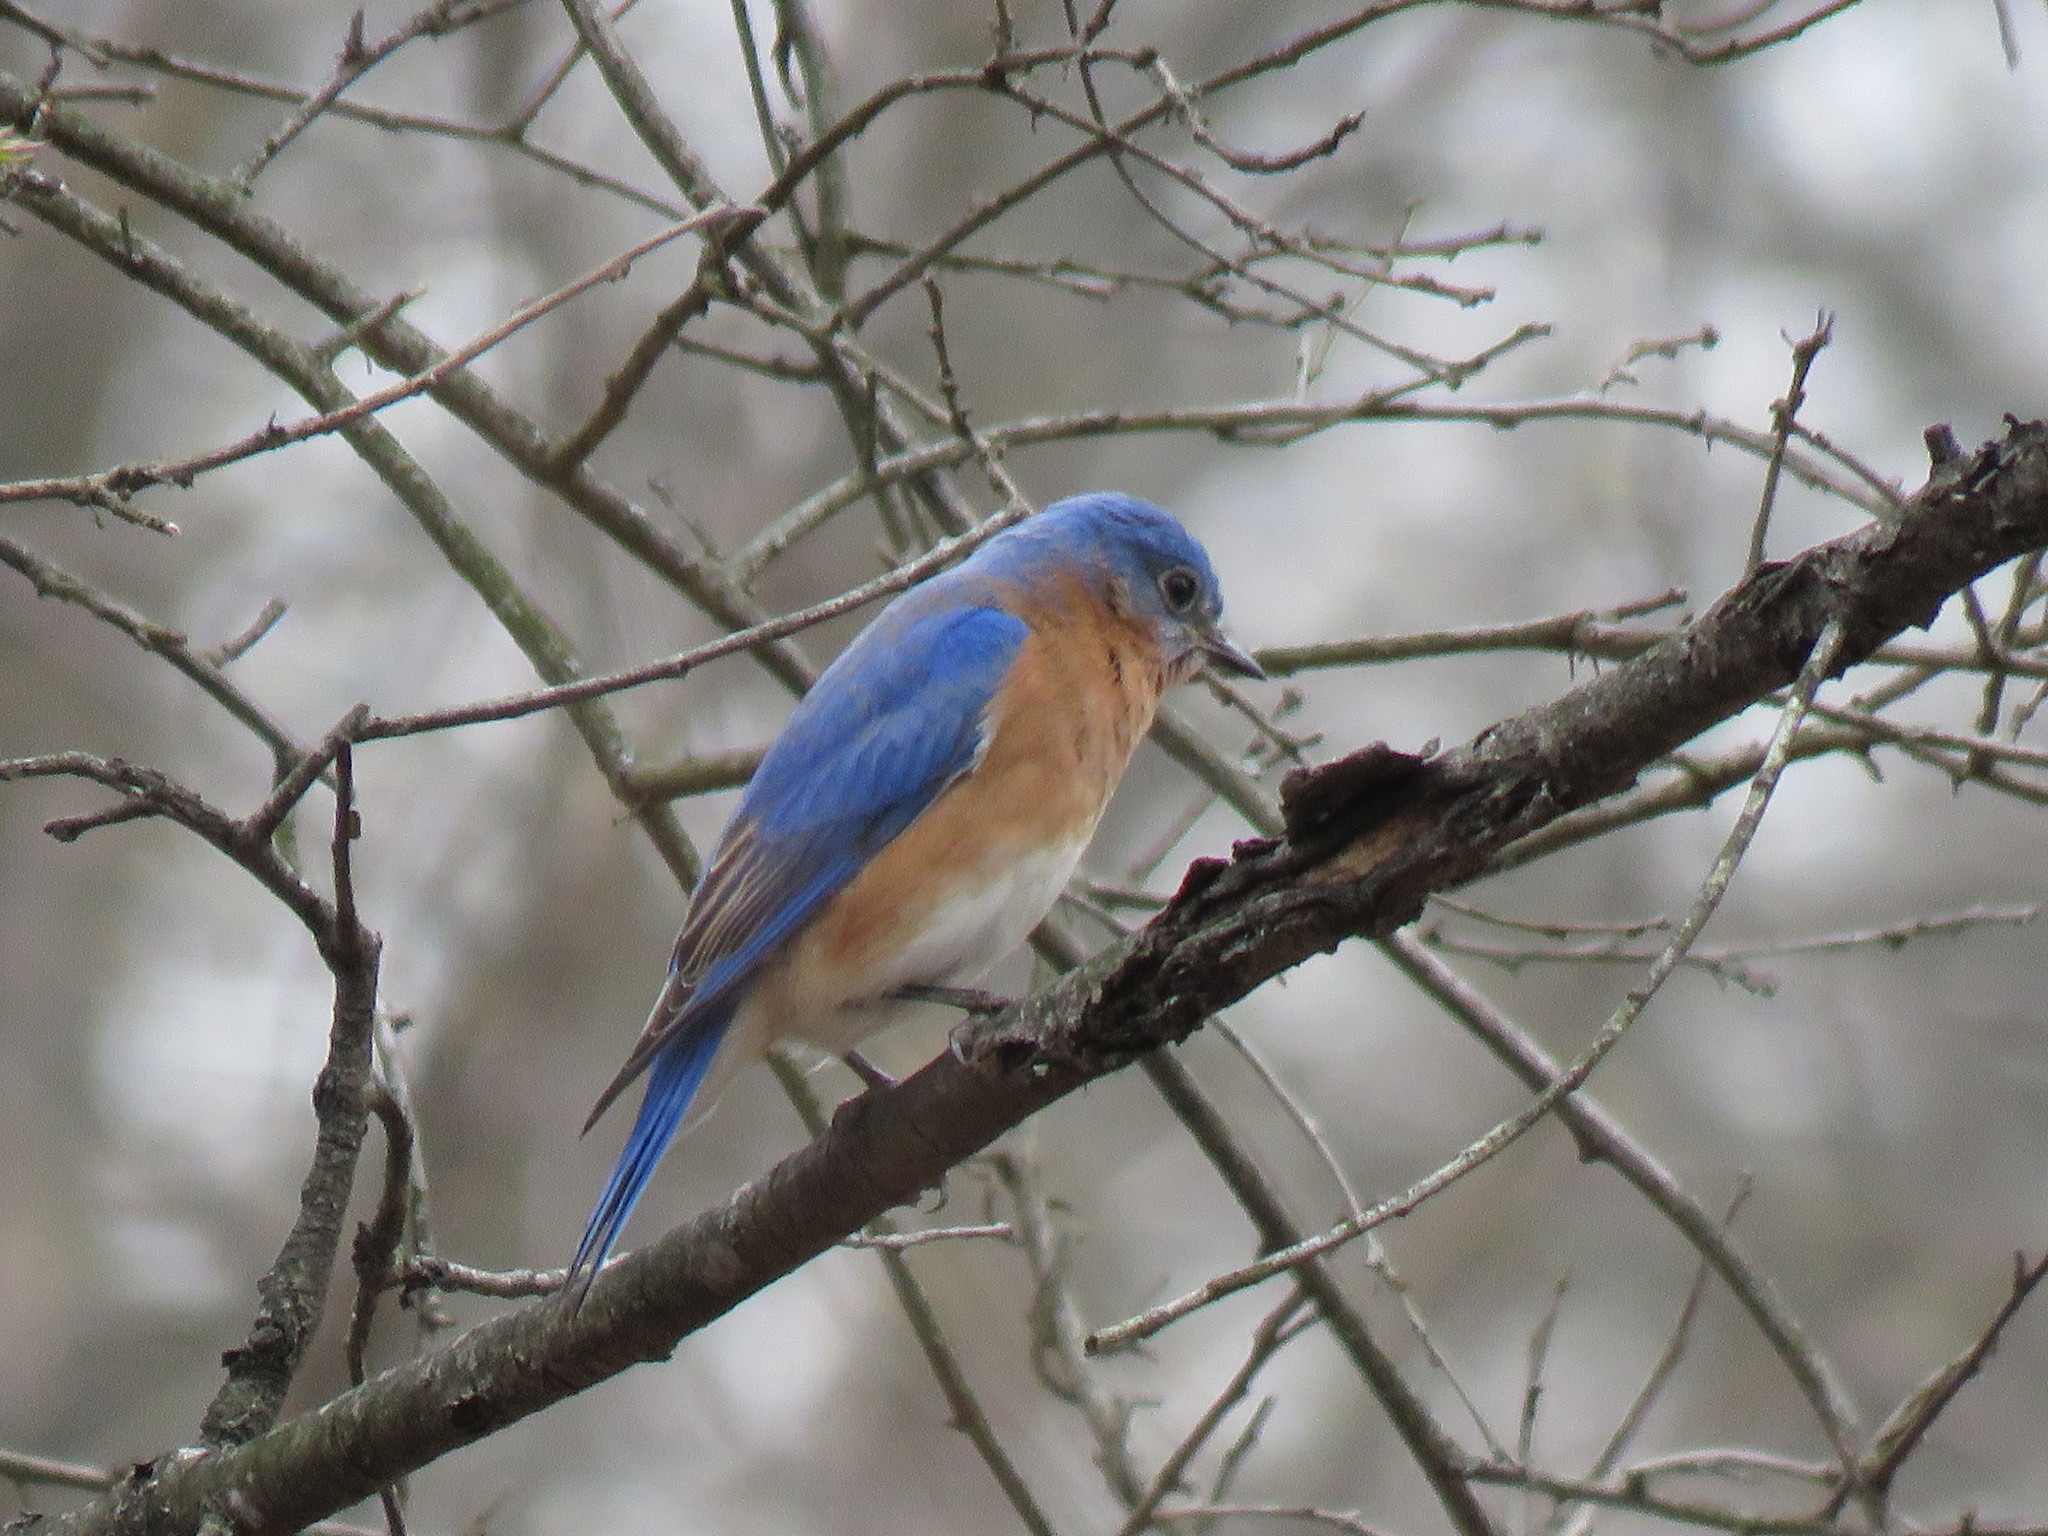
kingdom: Animalia
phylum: Chordata
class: Aves
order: Passeriformes
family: Turdidae
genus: Sialia
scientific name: Sialia sialis
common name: Eastern bluebird
